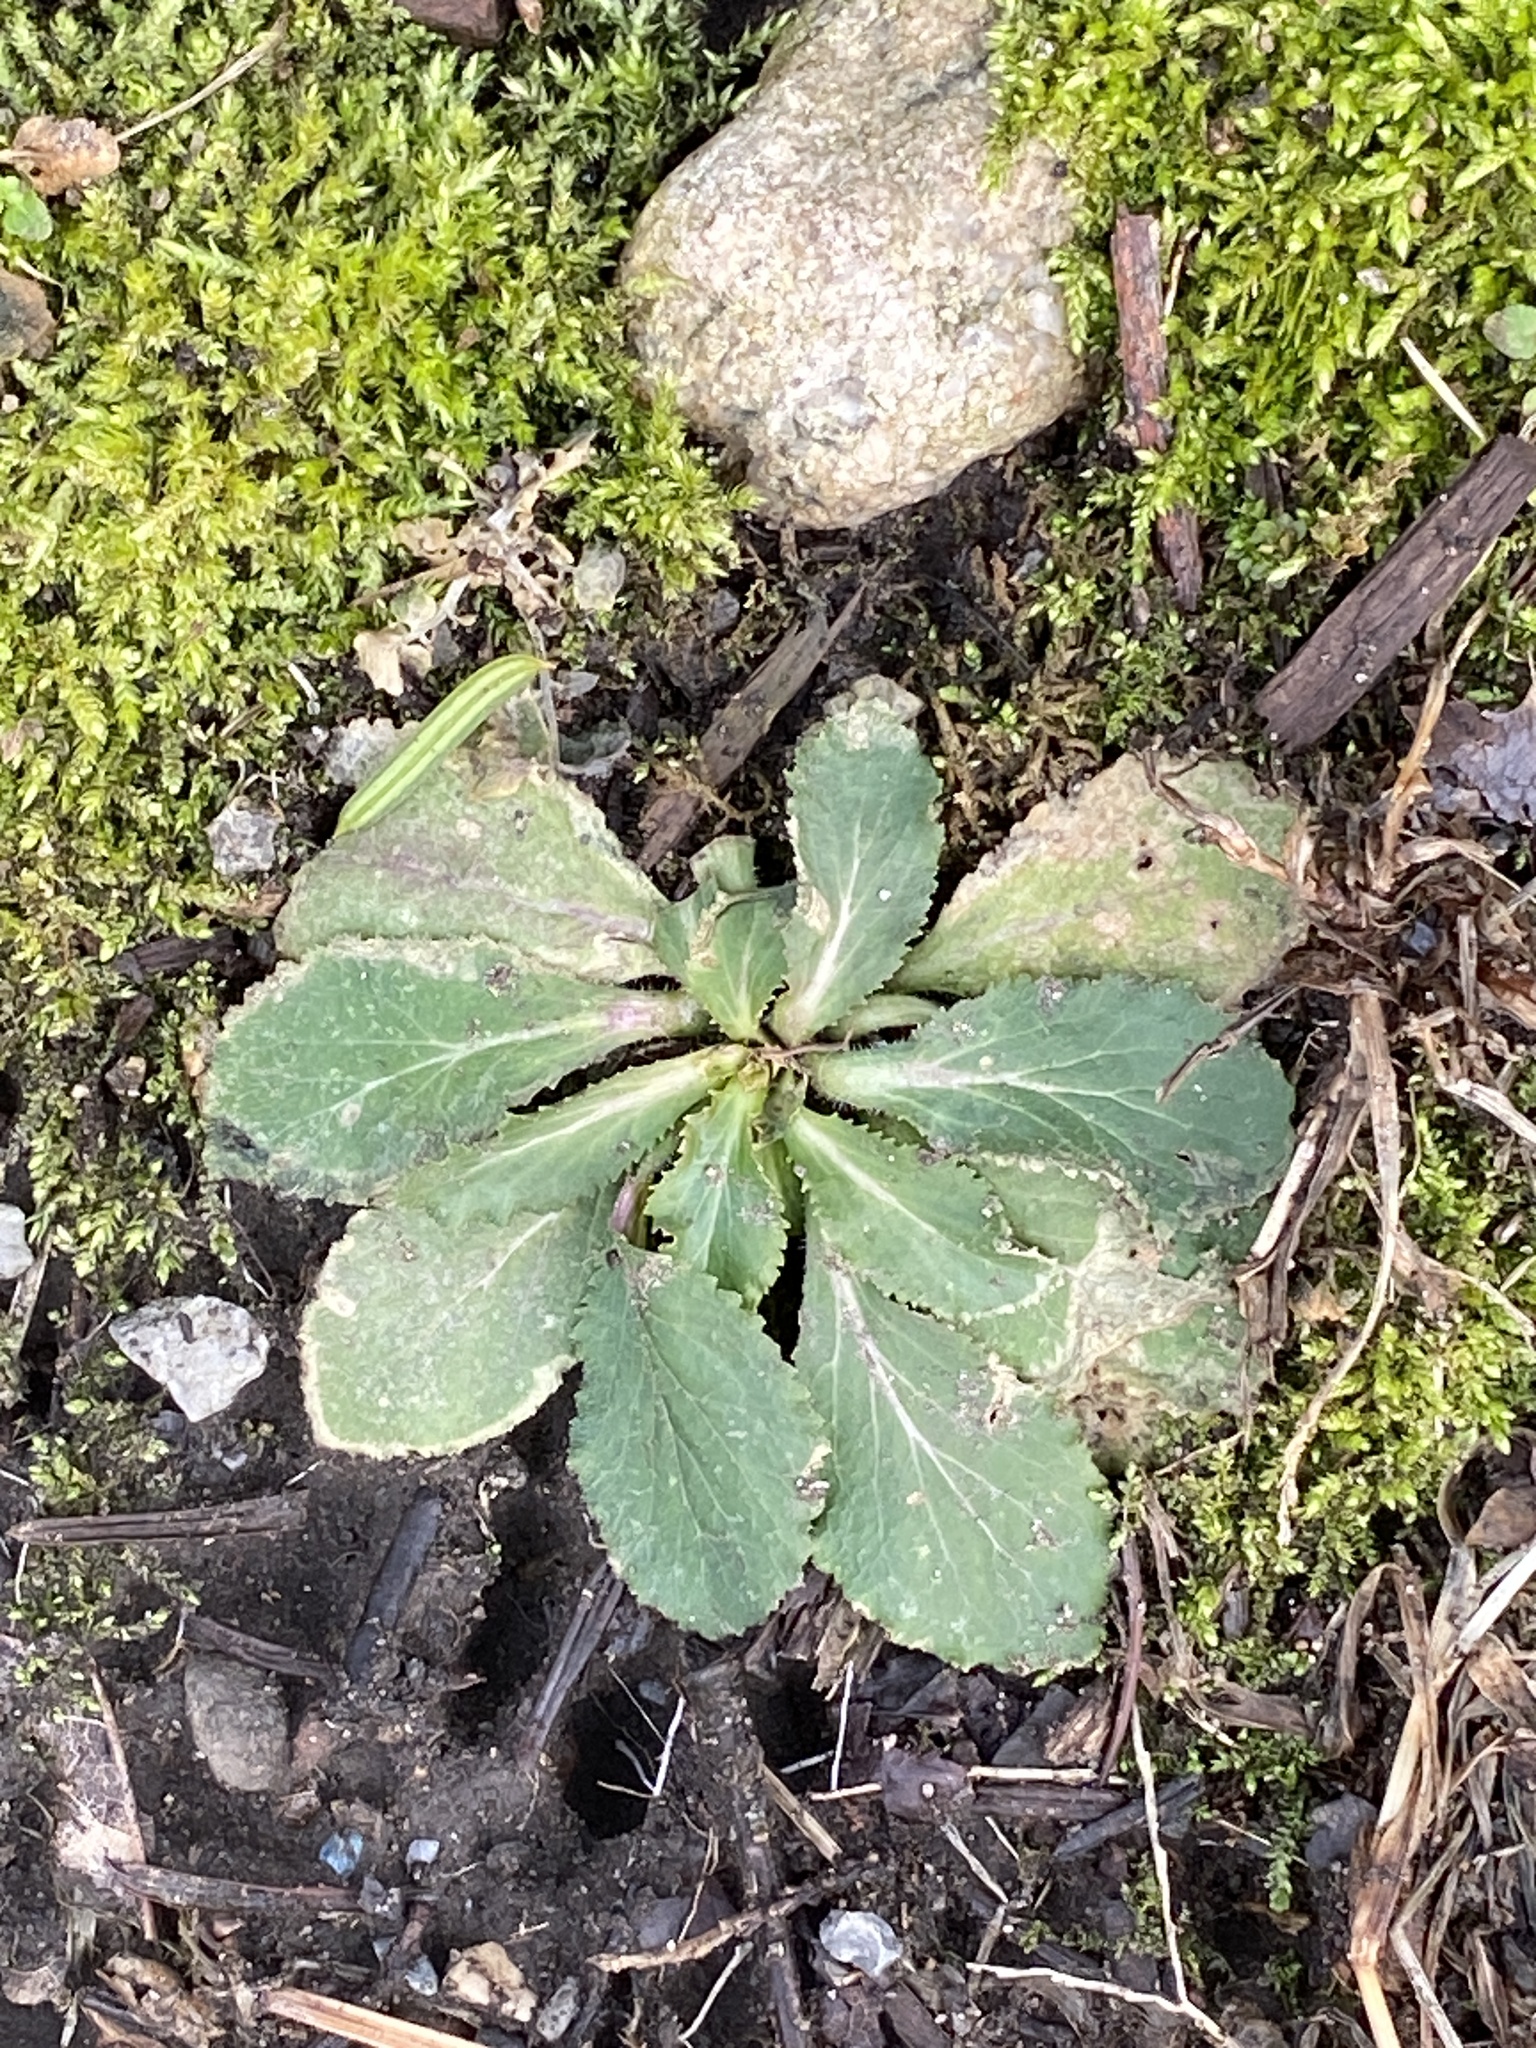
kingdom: Plantae
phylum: Tracheophyta
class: Magnoliopsida
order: Asterales
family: Campanulaceae
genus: Lobelia
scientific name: Lobelia inflata
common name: Indian tobacco
